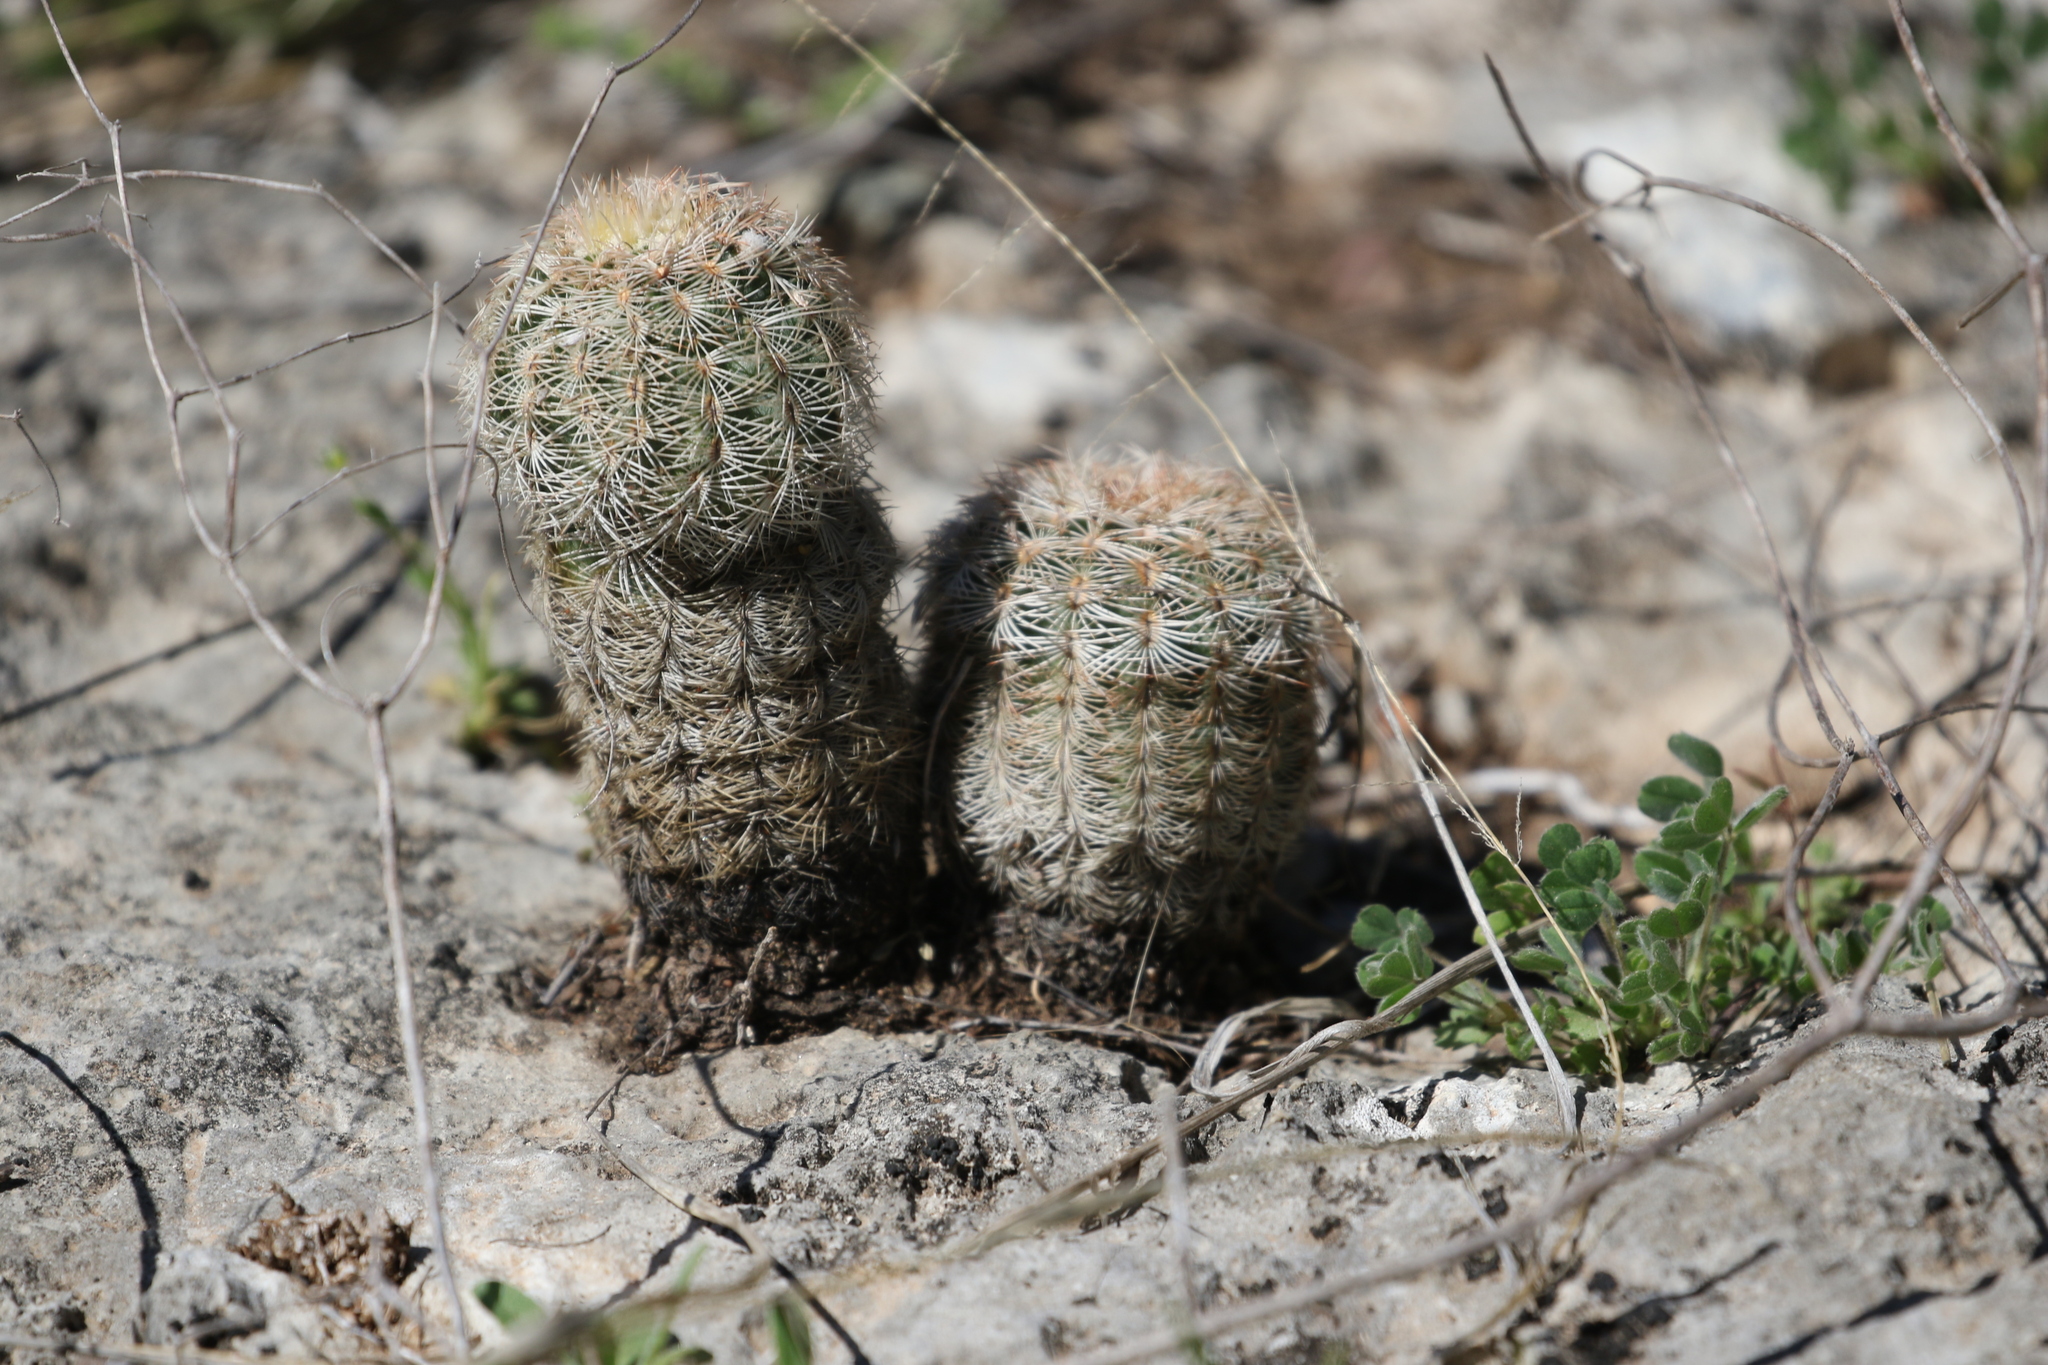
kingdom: Plantae
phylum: Tracheophyta
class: Magnoliopsida
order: Caryophyllales
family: Cactaceae
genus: Echinocereus
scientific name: Echinocereus reichenbachii
